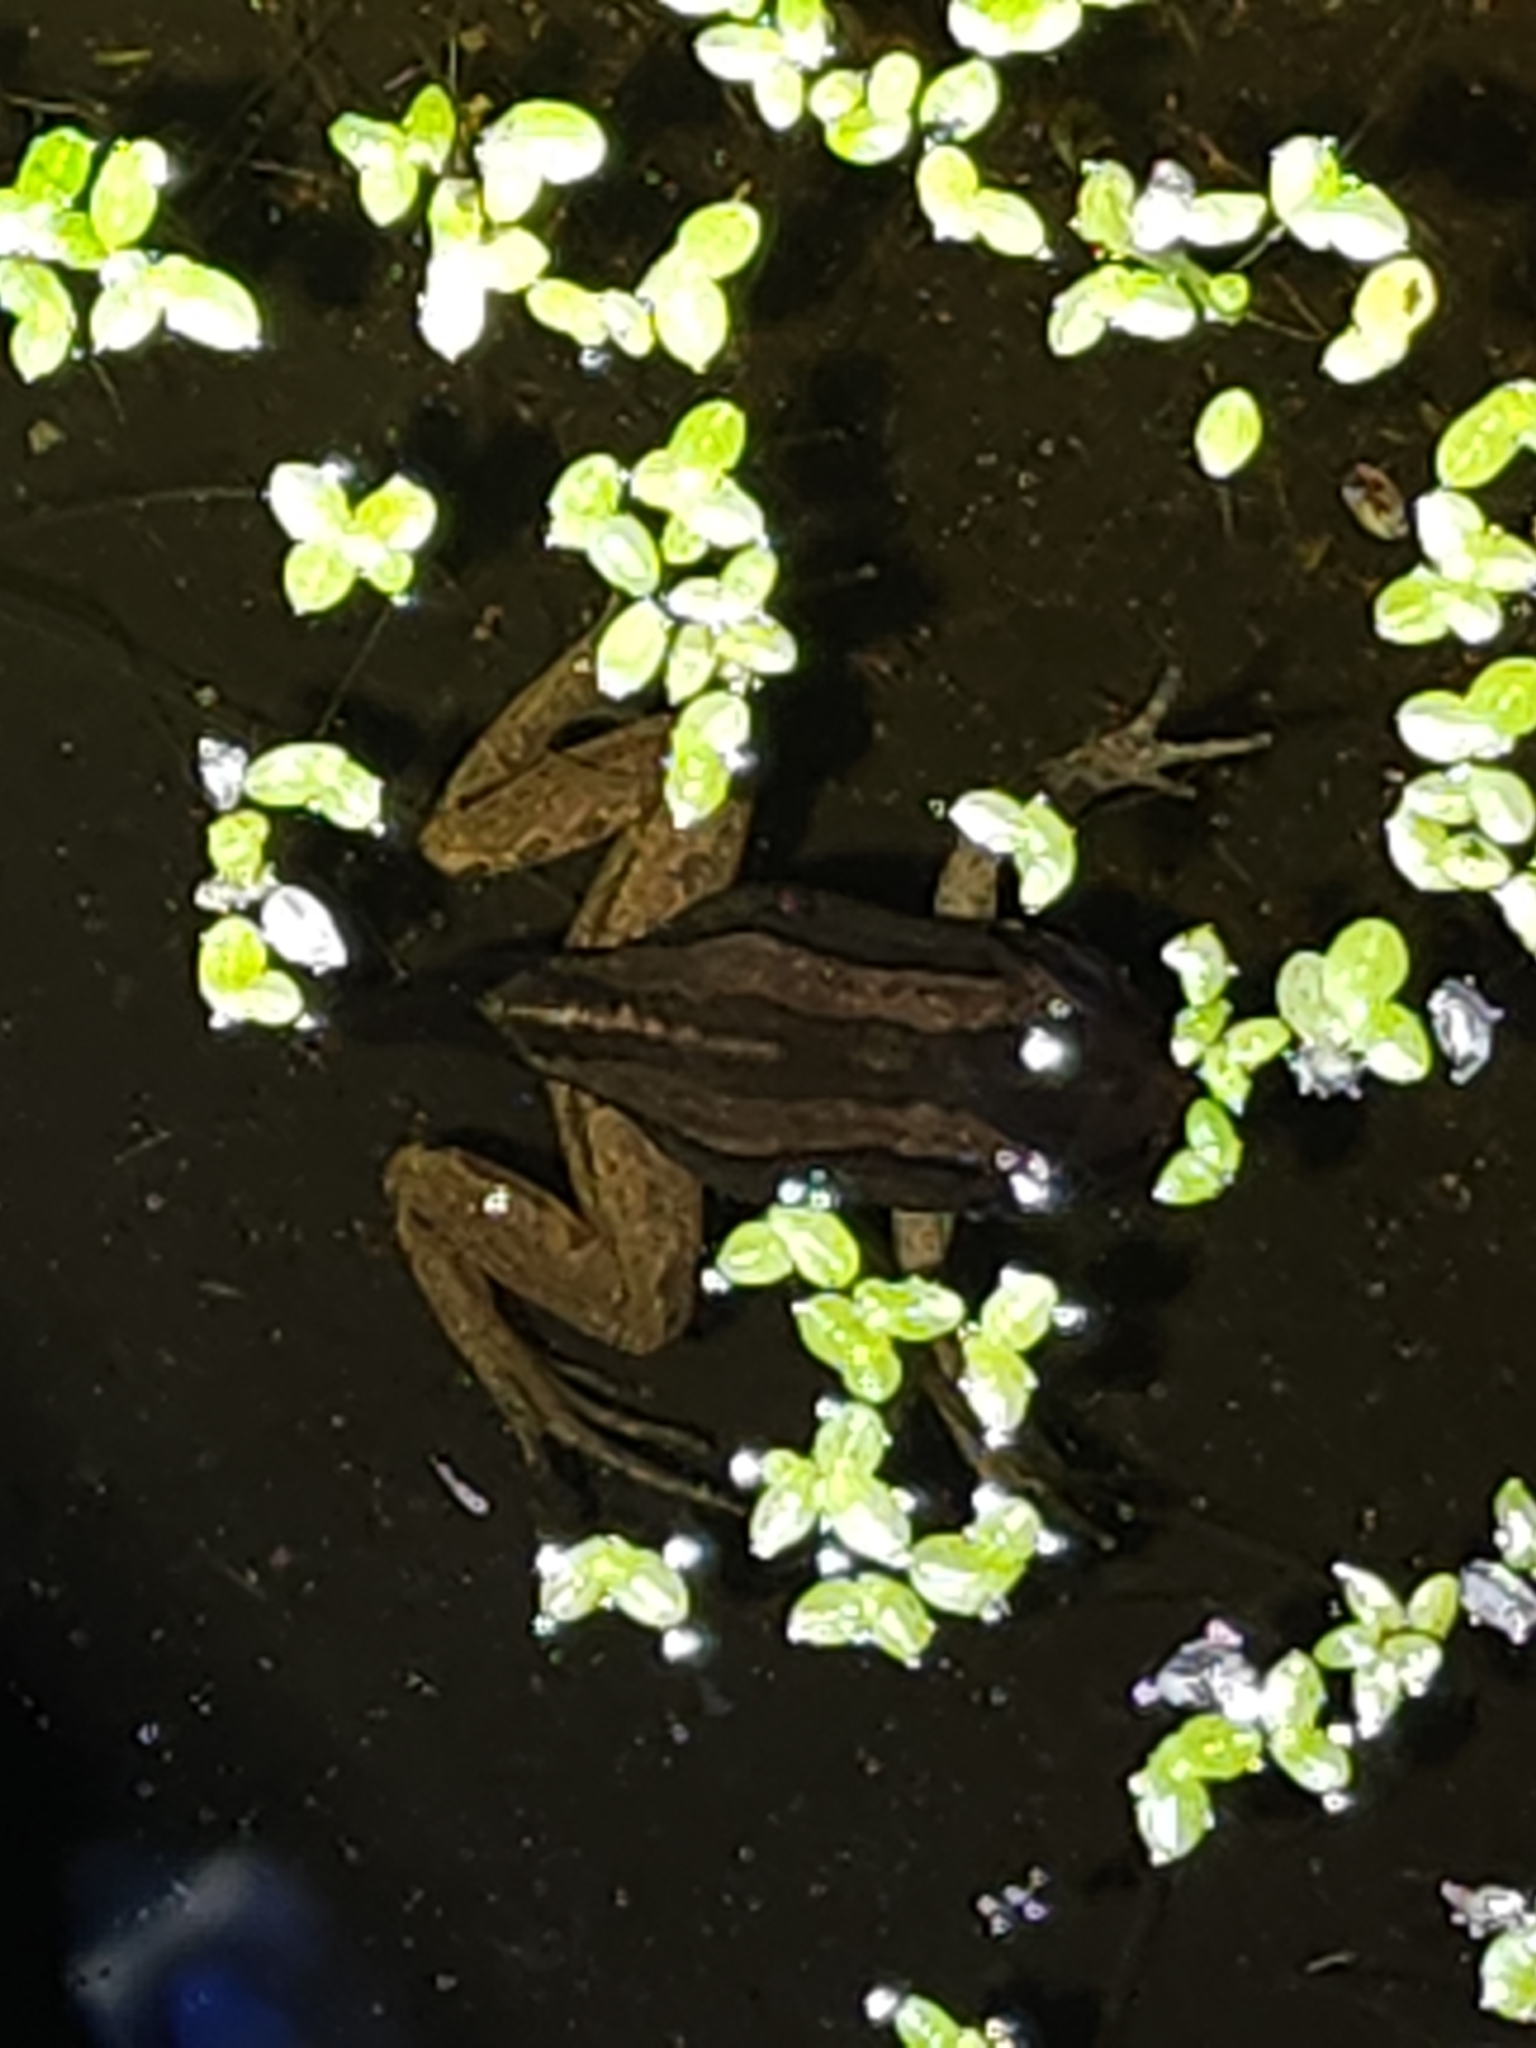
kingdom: Animalia
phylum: Chordata
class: Amphibia
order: Anura
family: Limnodynastidae
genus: Limnodynastes
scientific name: Limnodynastes peronii
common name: Brown frog
